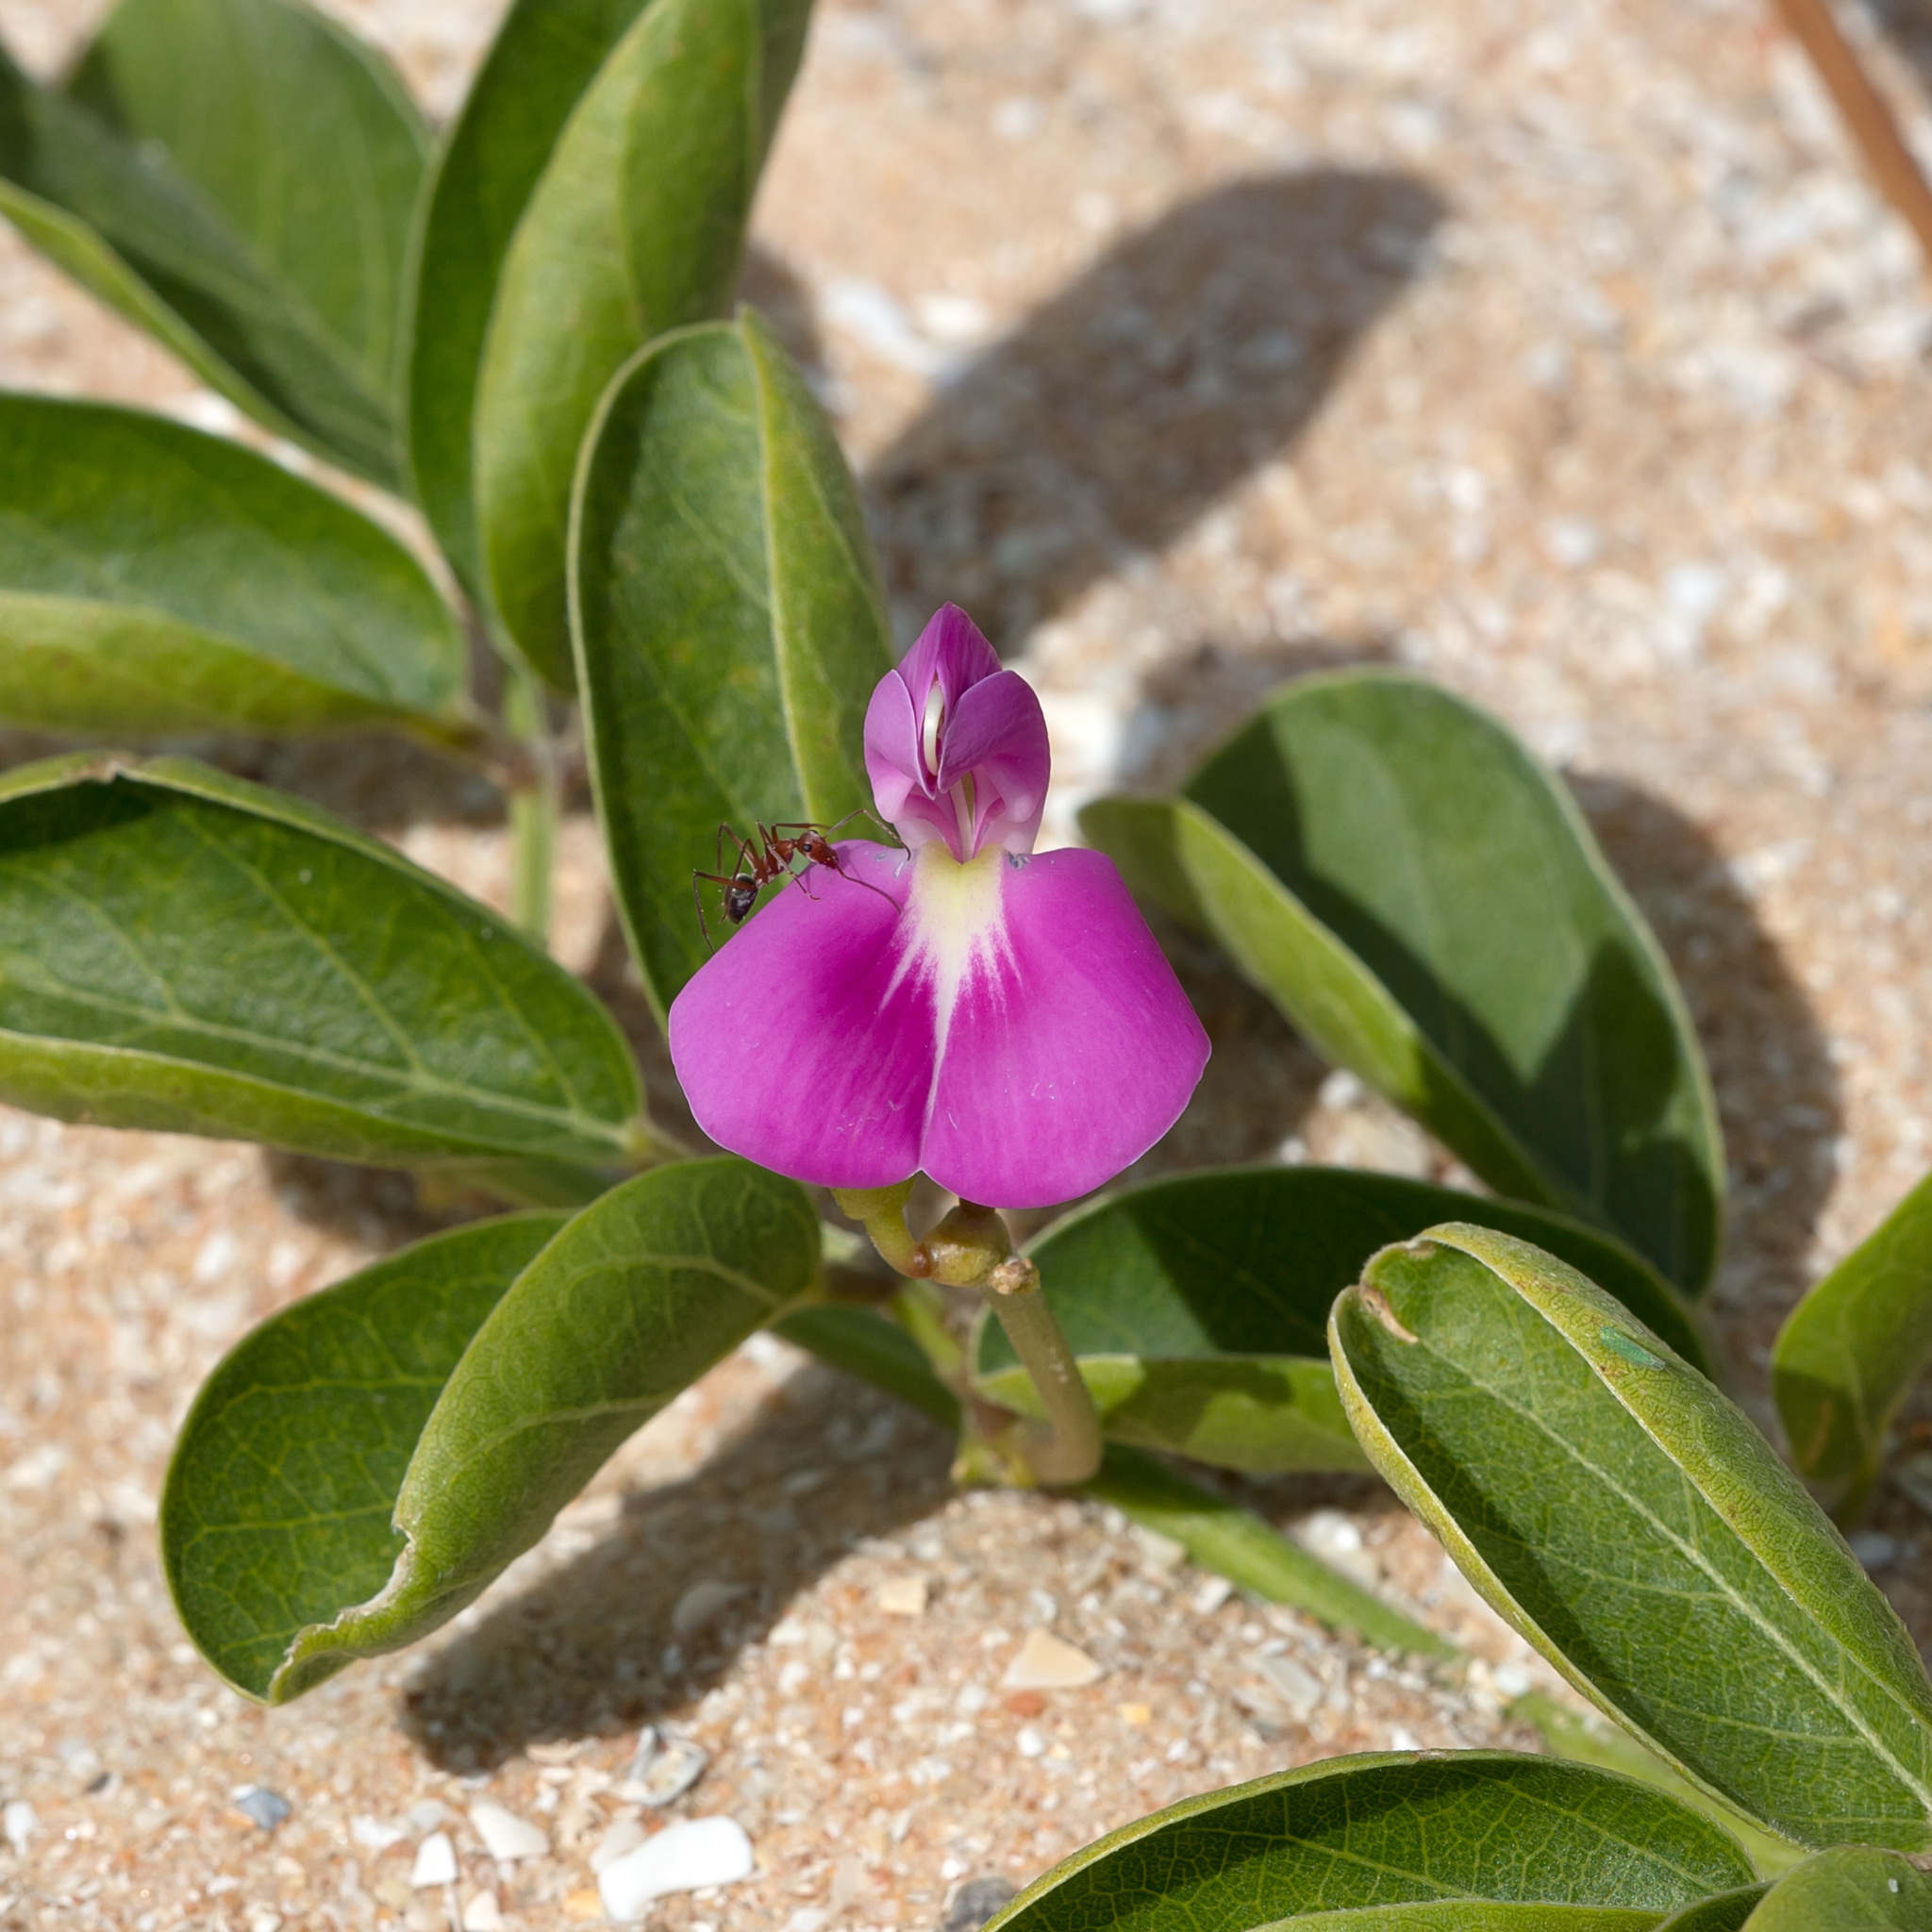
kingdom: Plantae
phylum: Tracheophyta
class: Magnoliopsida
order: Fabales
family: Fabaceae
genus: Canavalia
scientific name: Canavalia rosea
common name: Beach-bean
